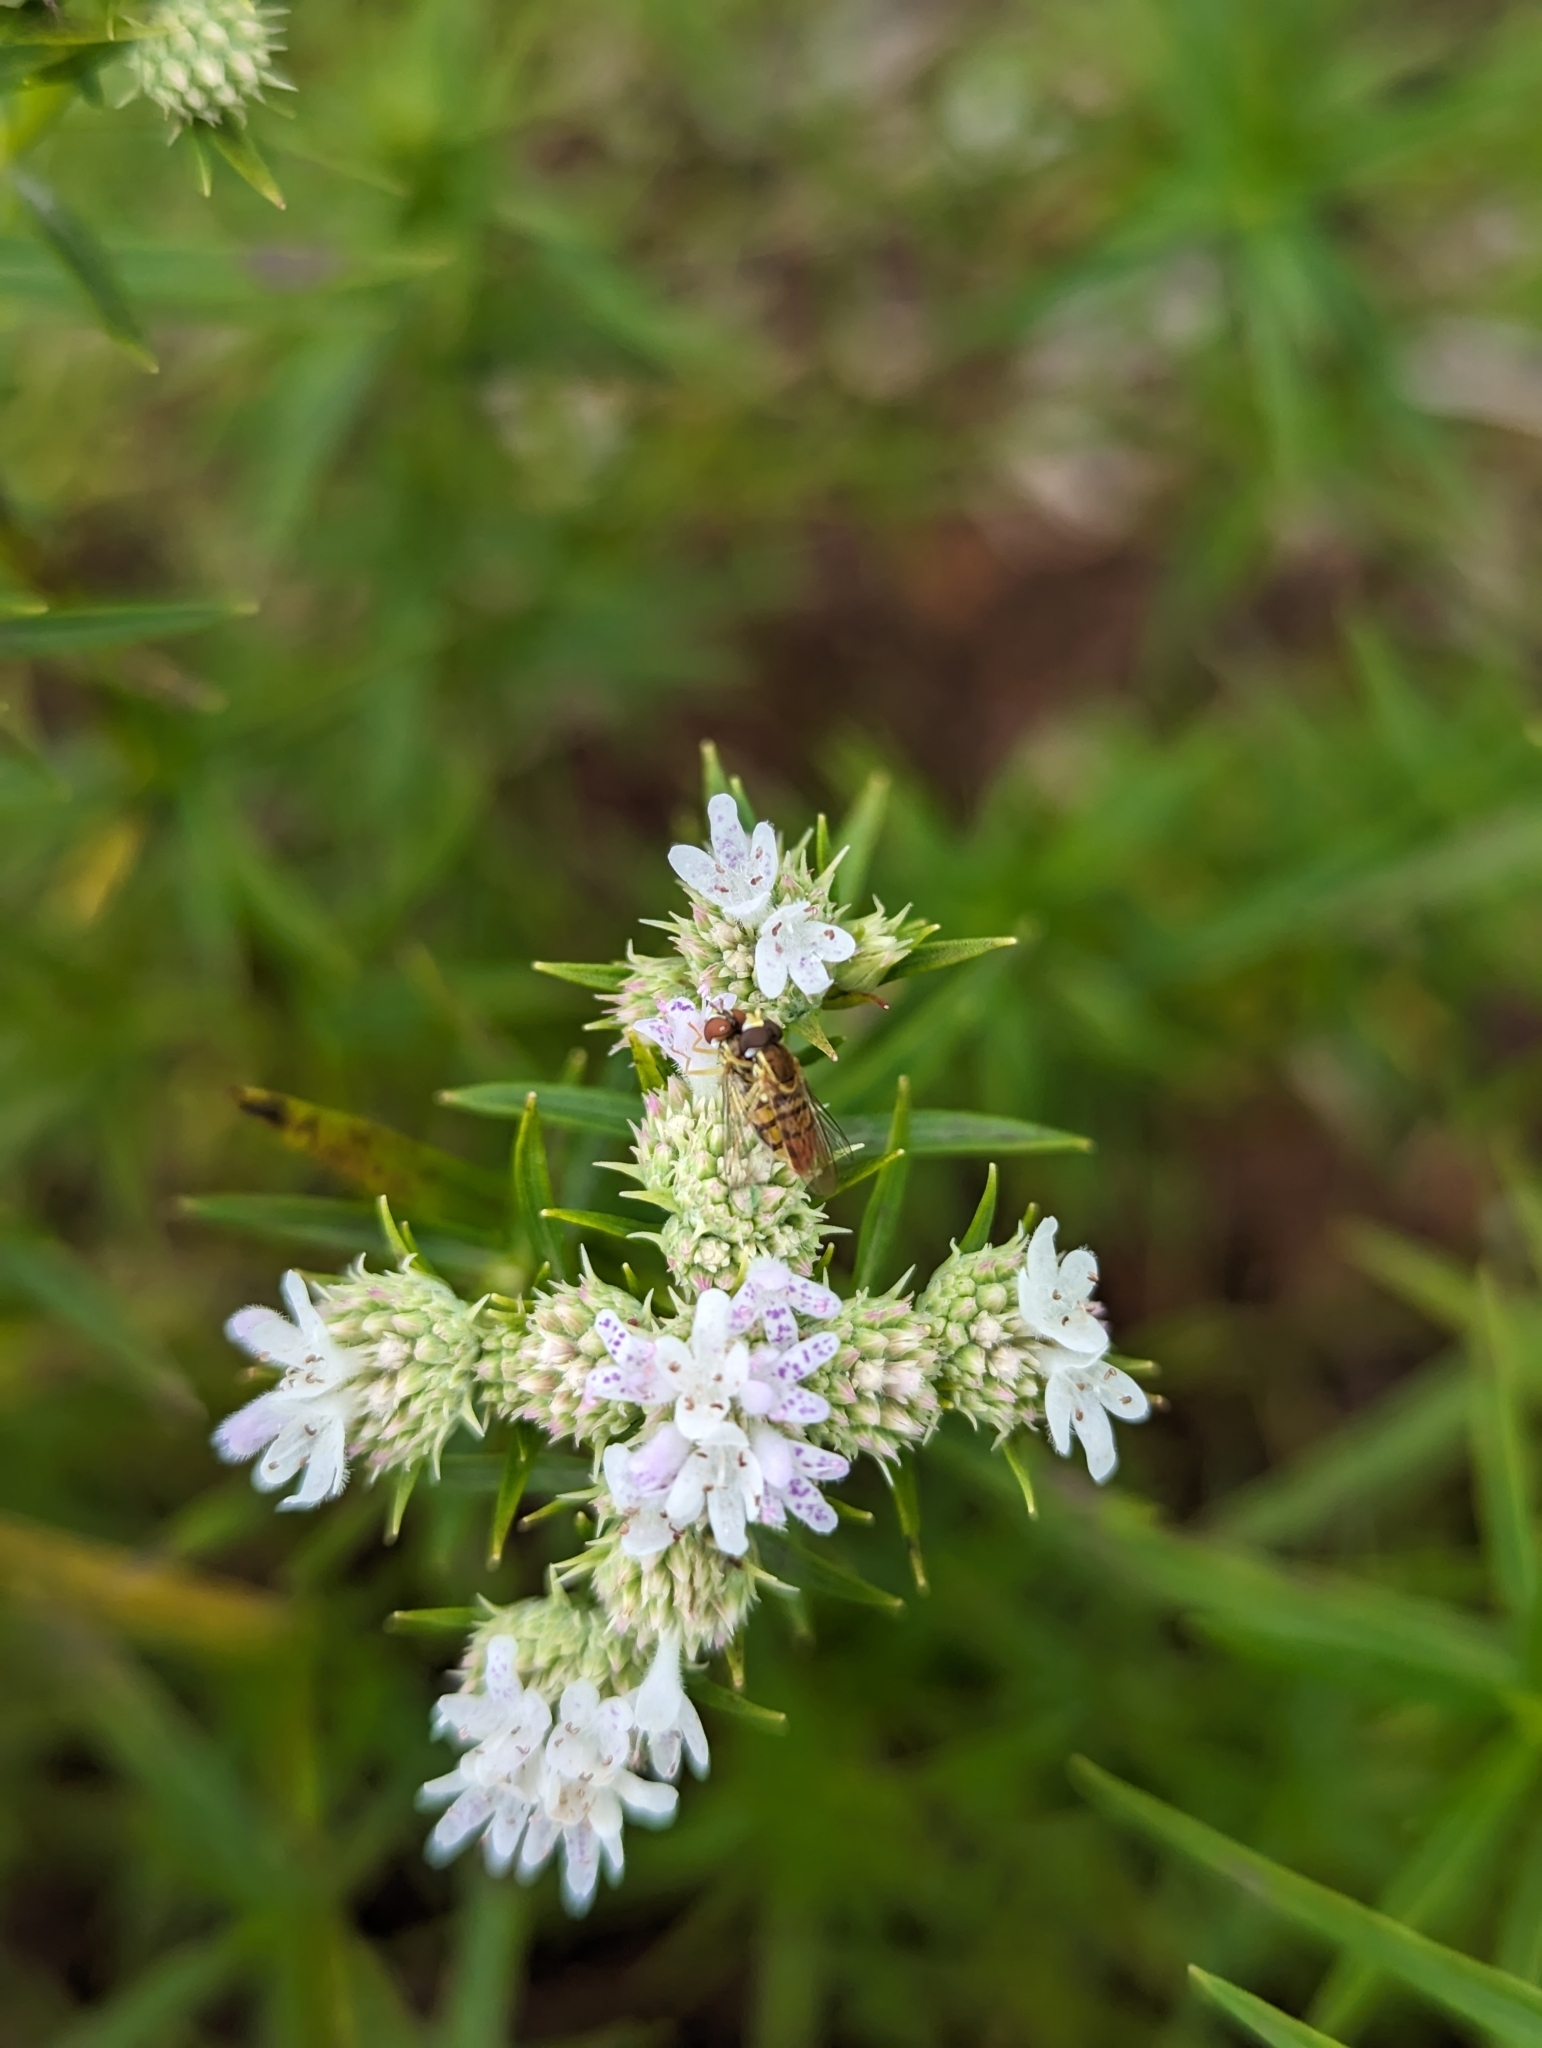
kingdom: Animalia
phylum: Arthropoda
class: Insecta
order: Diptera
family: Syrphidae
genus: Toxomerus
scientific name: Toxomerus marginatus
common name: Syrphid fly
